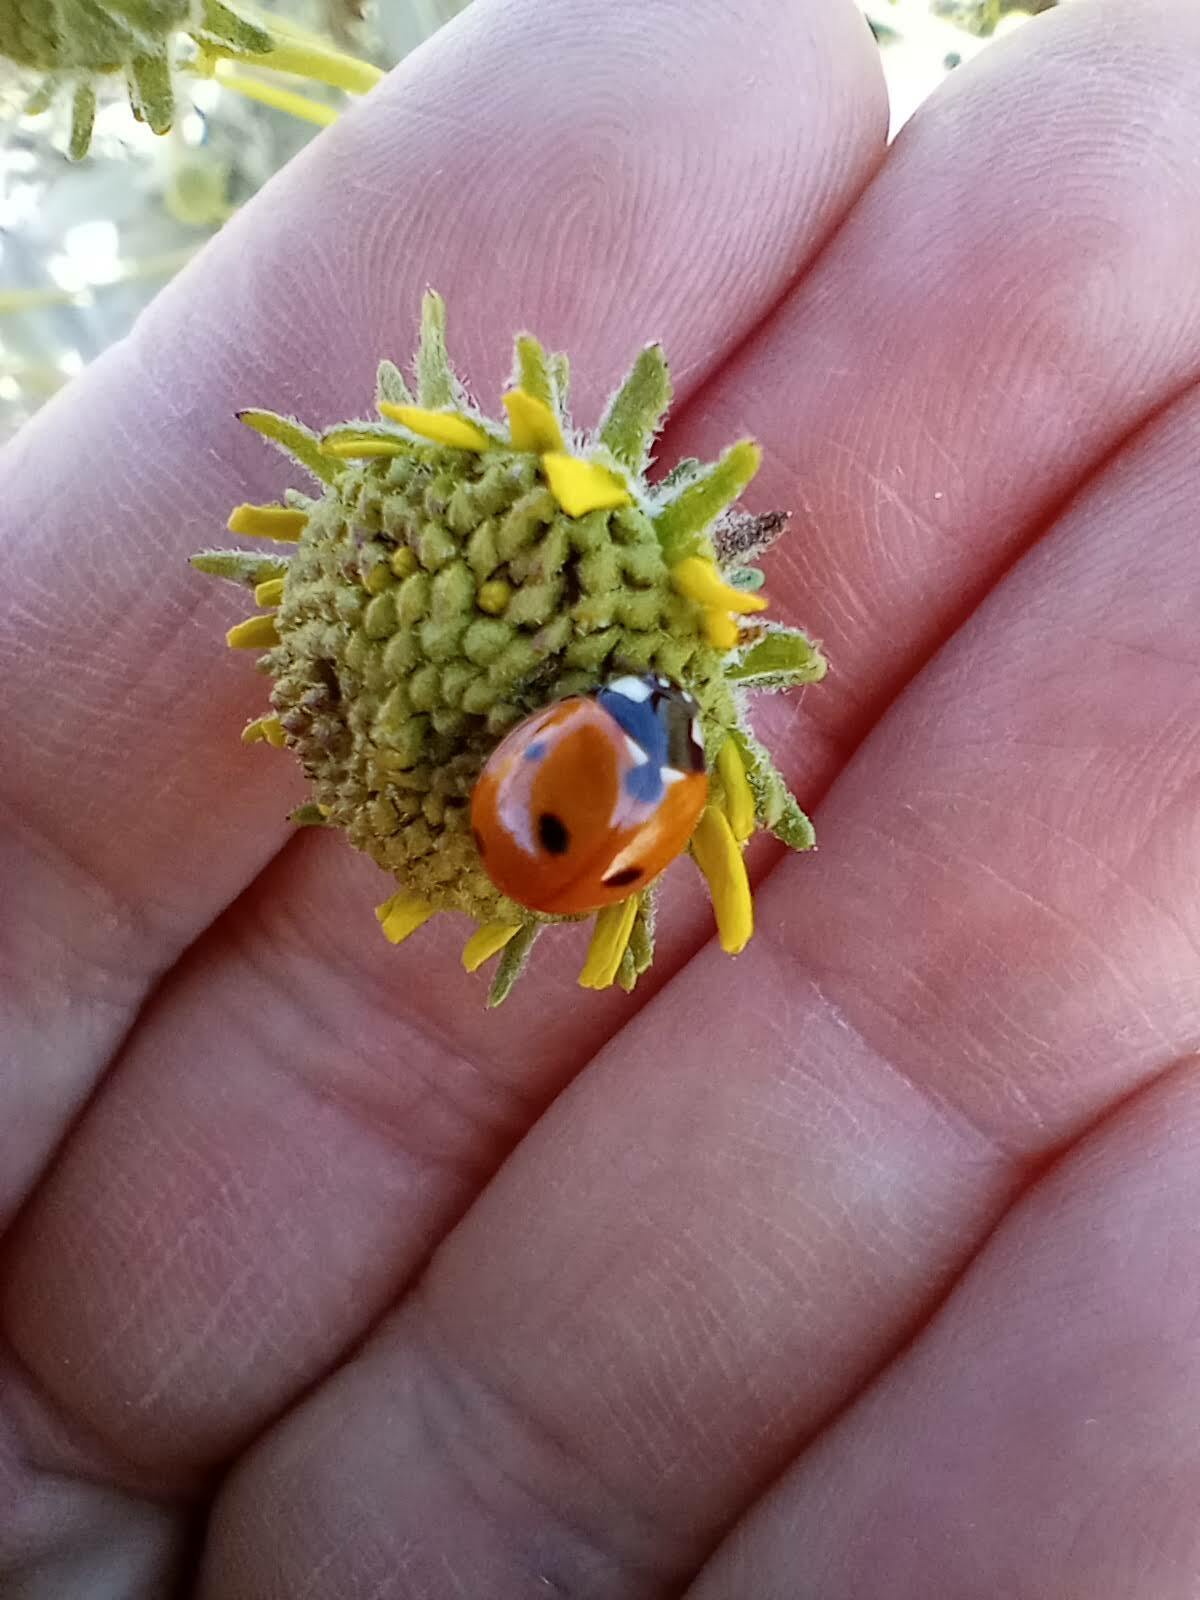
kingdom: Animalia
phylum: Arthropoda
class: Insecta
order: Coleoptera
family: Coccinellidae
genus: Coccinella
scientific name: Coccinella septempunctata
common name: Sevenspotted lady beetle
